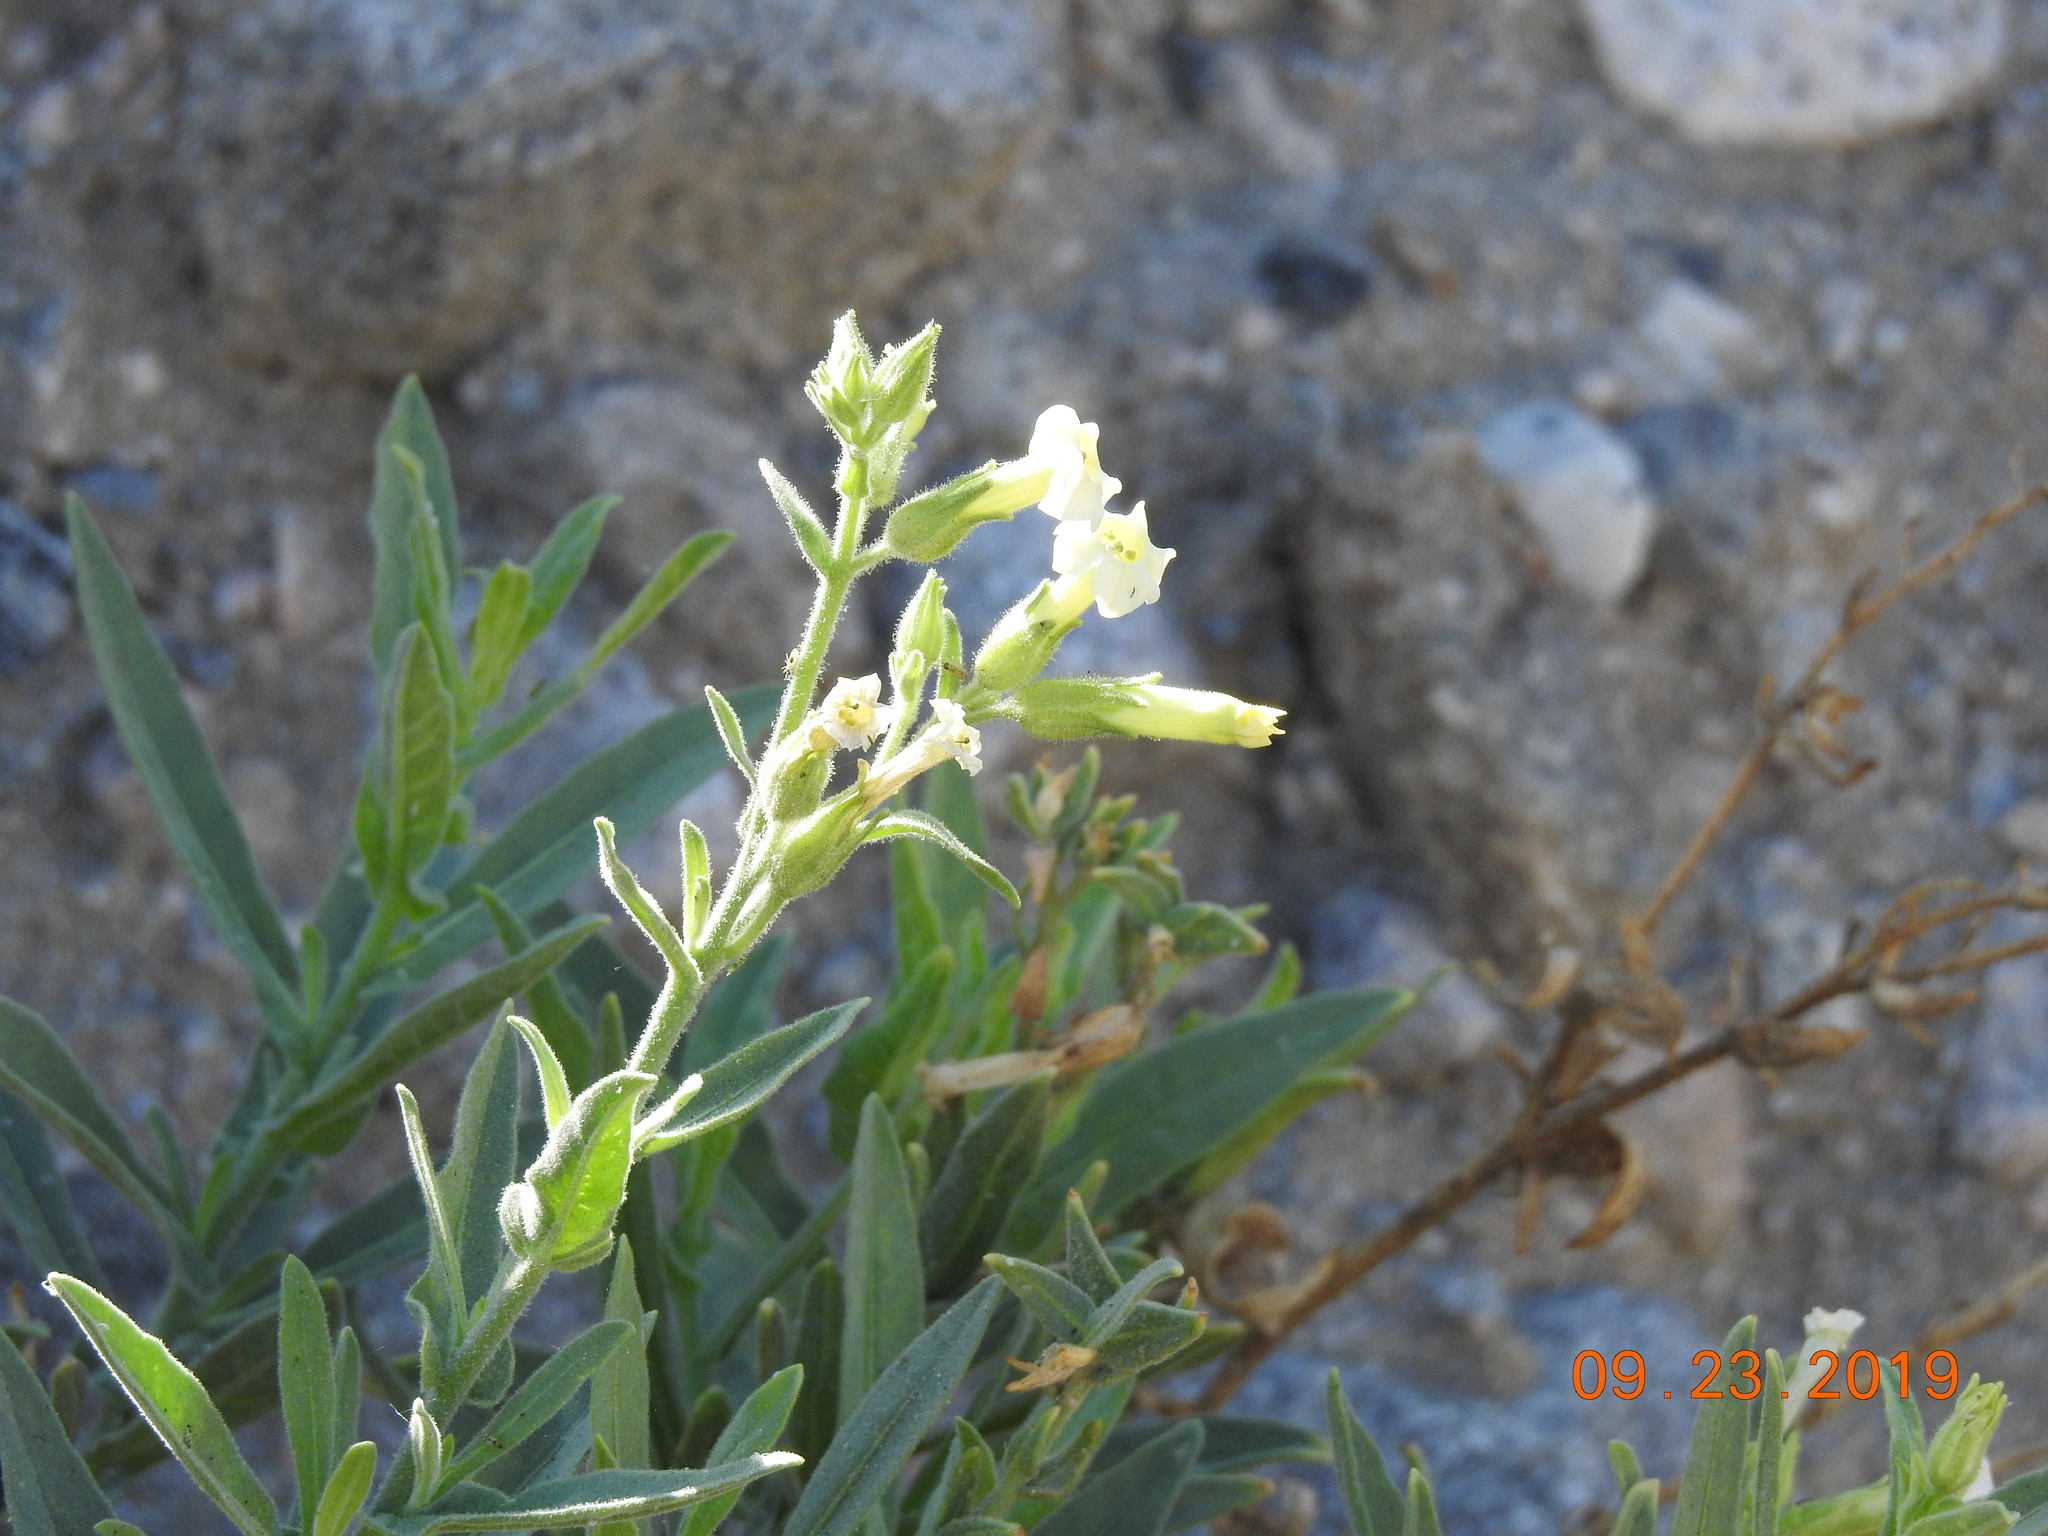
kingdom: Plantae
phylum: Tracheophyta
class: Magnoliopsida
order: Solanales
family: Solanaceae
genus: Nicotiana
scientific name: Nicotiana obtusifolia
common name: Desert tobacco
